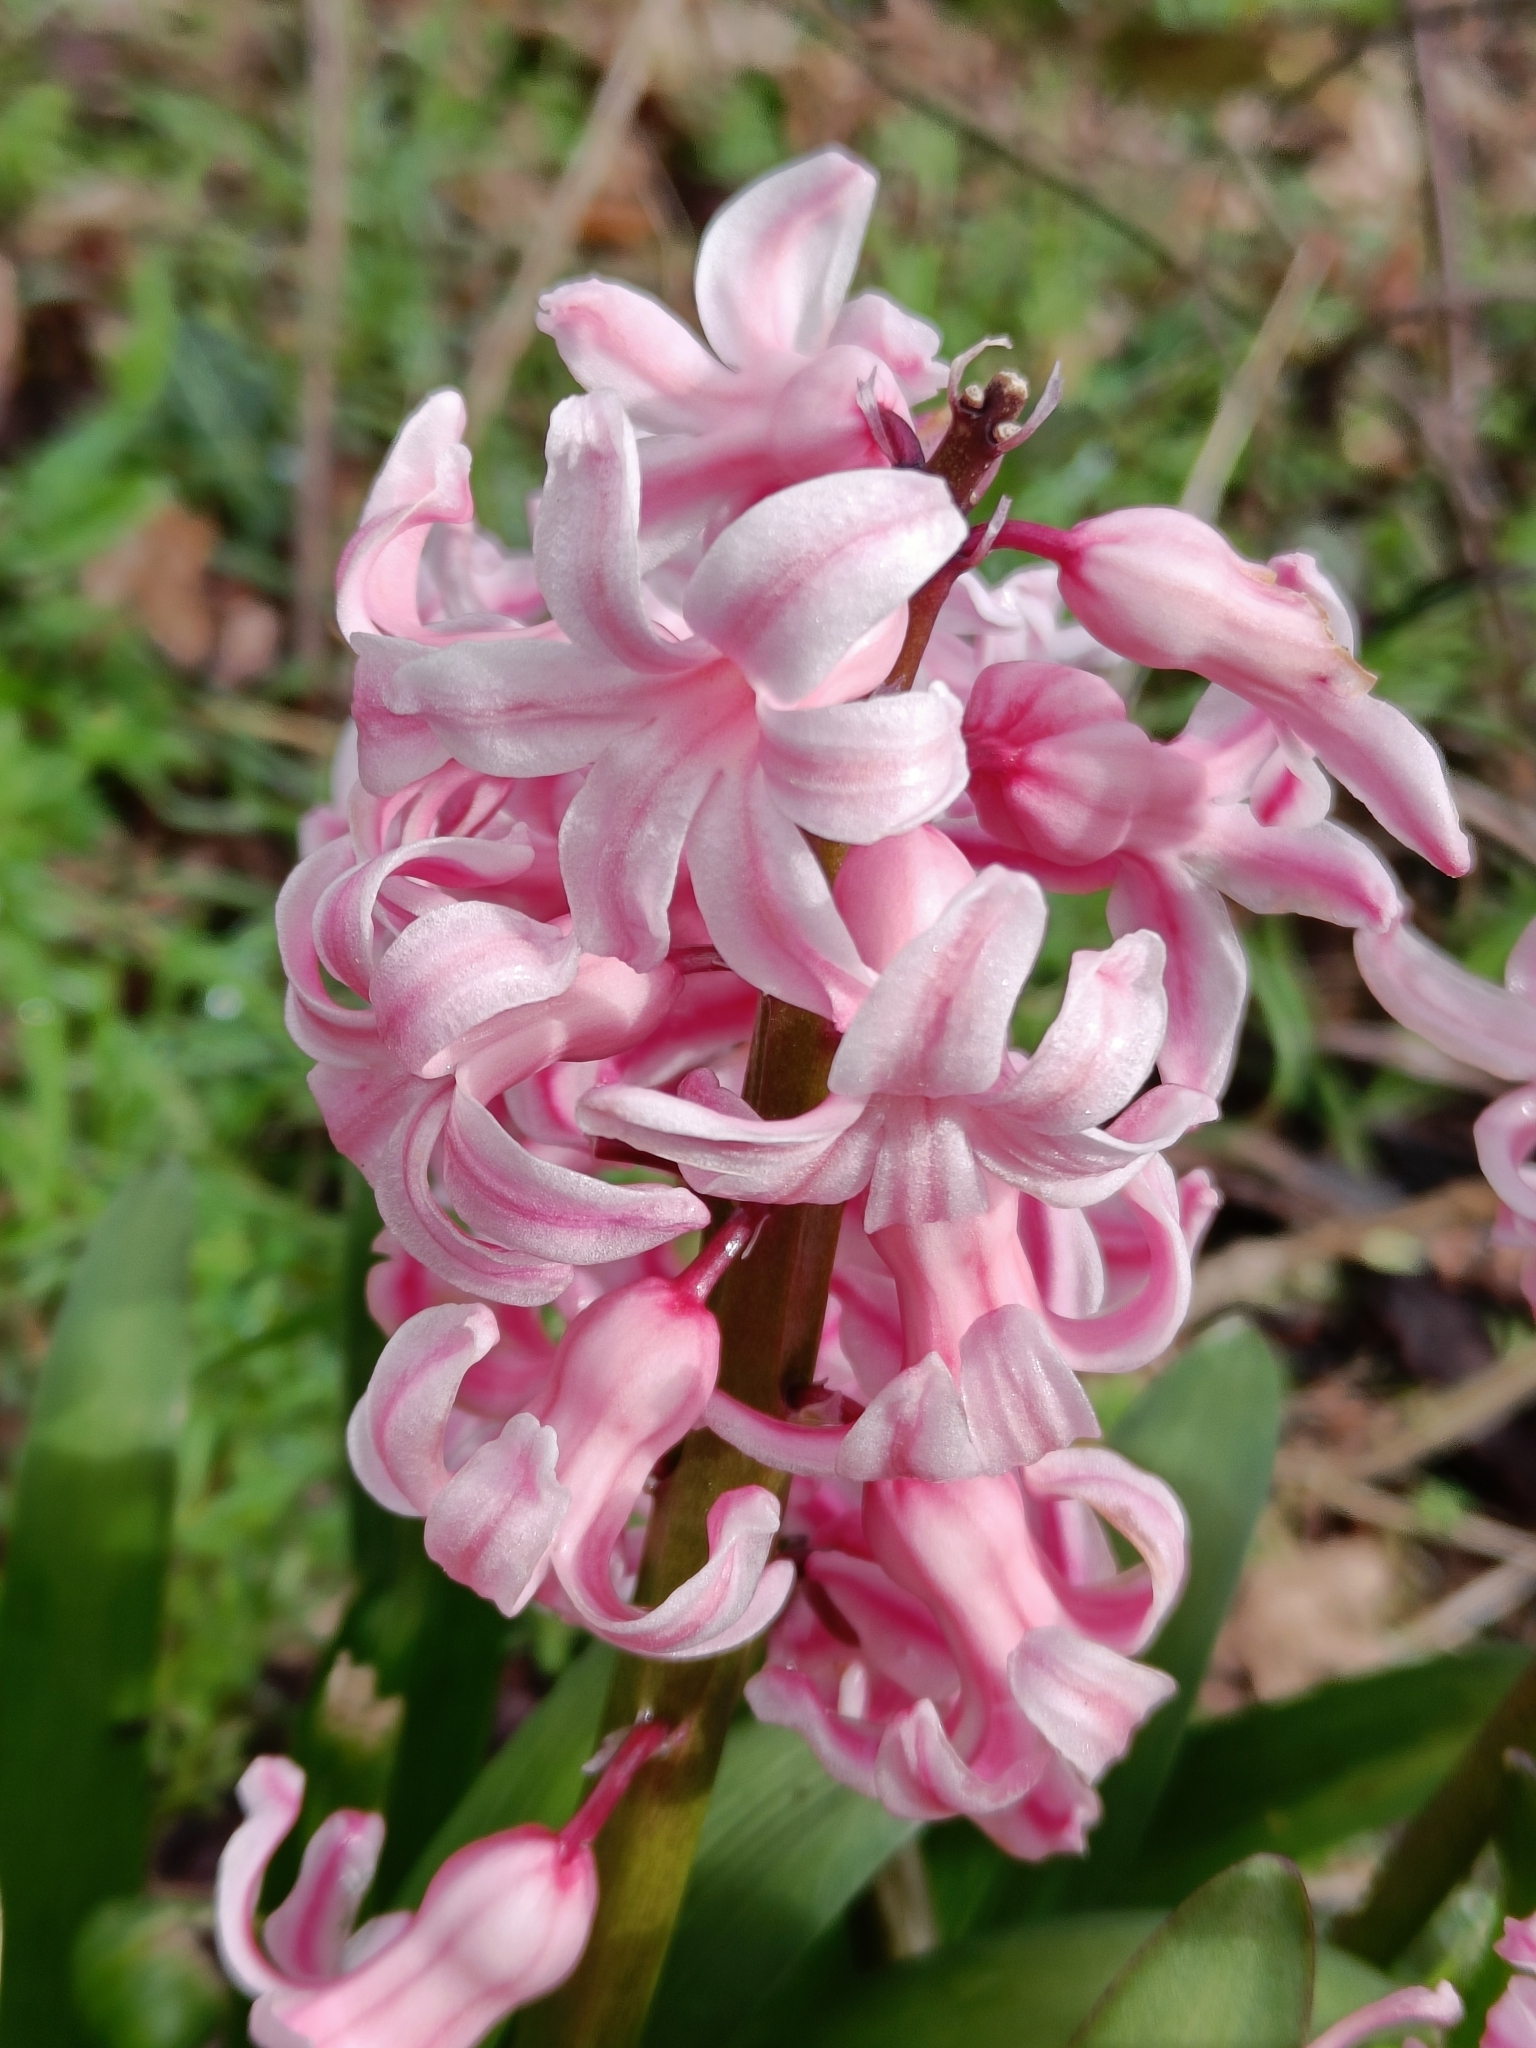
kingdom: Plantae
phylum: Tracheophyta
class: Liliopsida
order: Asparagales
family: Asparagaceae
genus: Hyacinthus
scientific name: Hyacinthus orientalis
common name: Hyacinth
